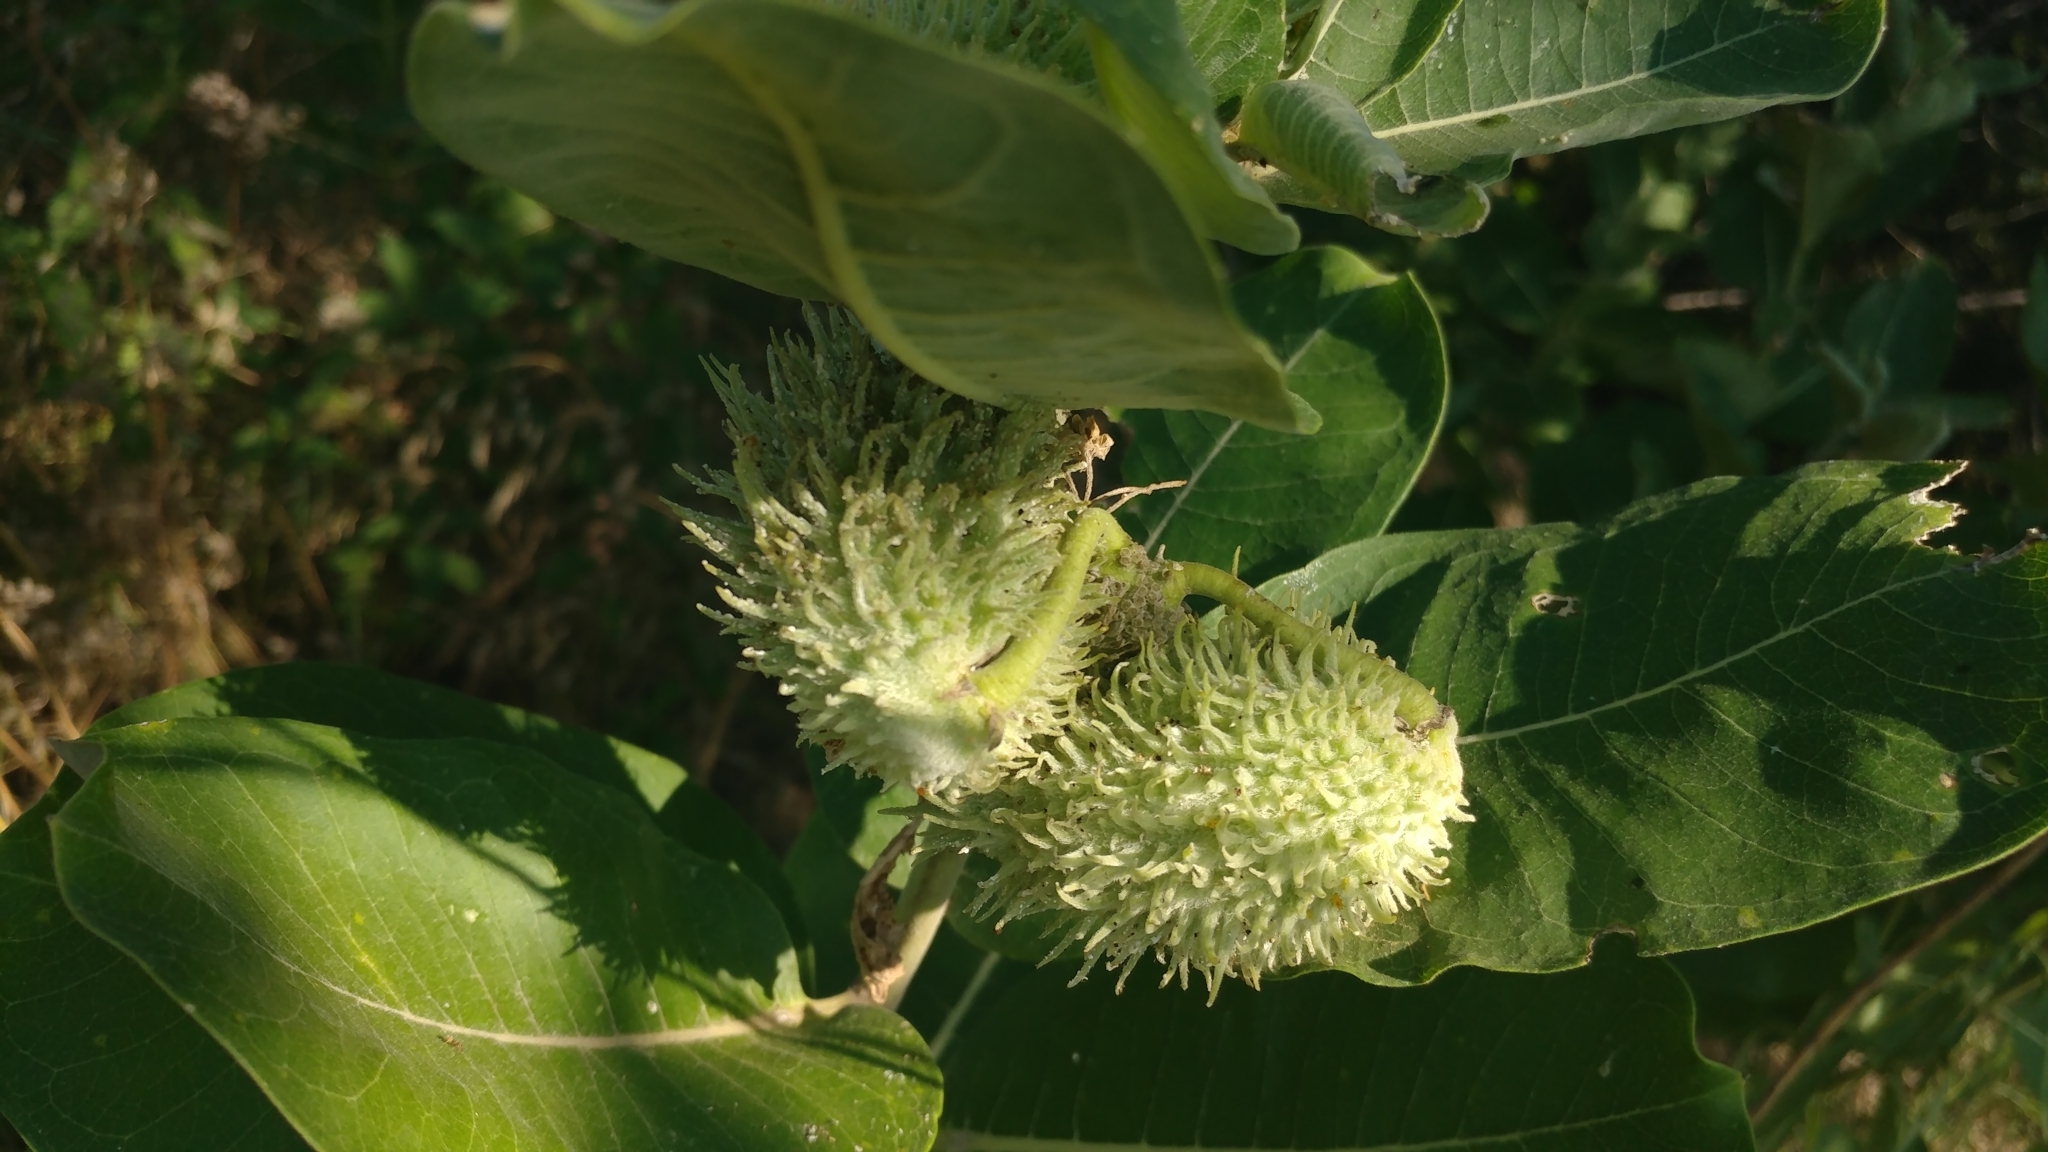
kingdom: Plantae
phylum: Tracheophyta
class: Magnoliopsida
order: Gentianales
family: Apocynaceae
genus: Asclepias
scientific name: Asclepias syriaca
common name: Common milkweed
